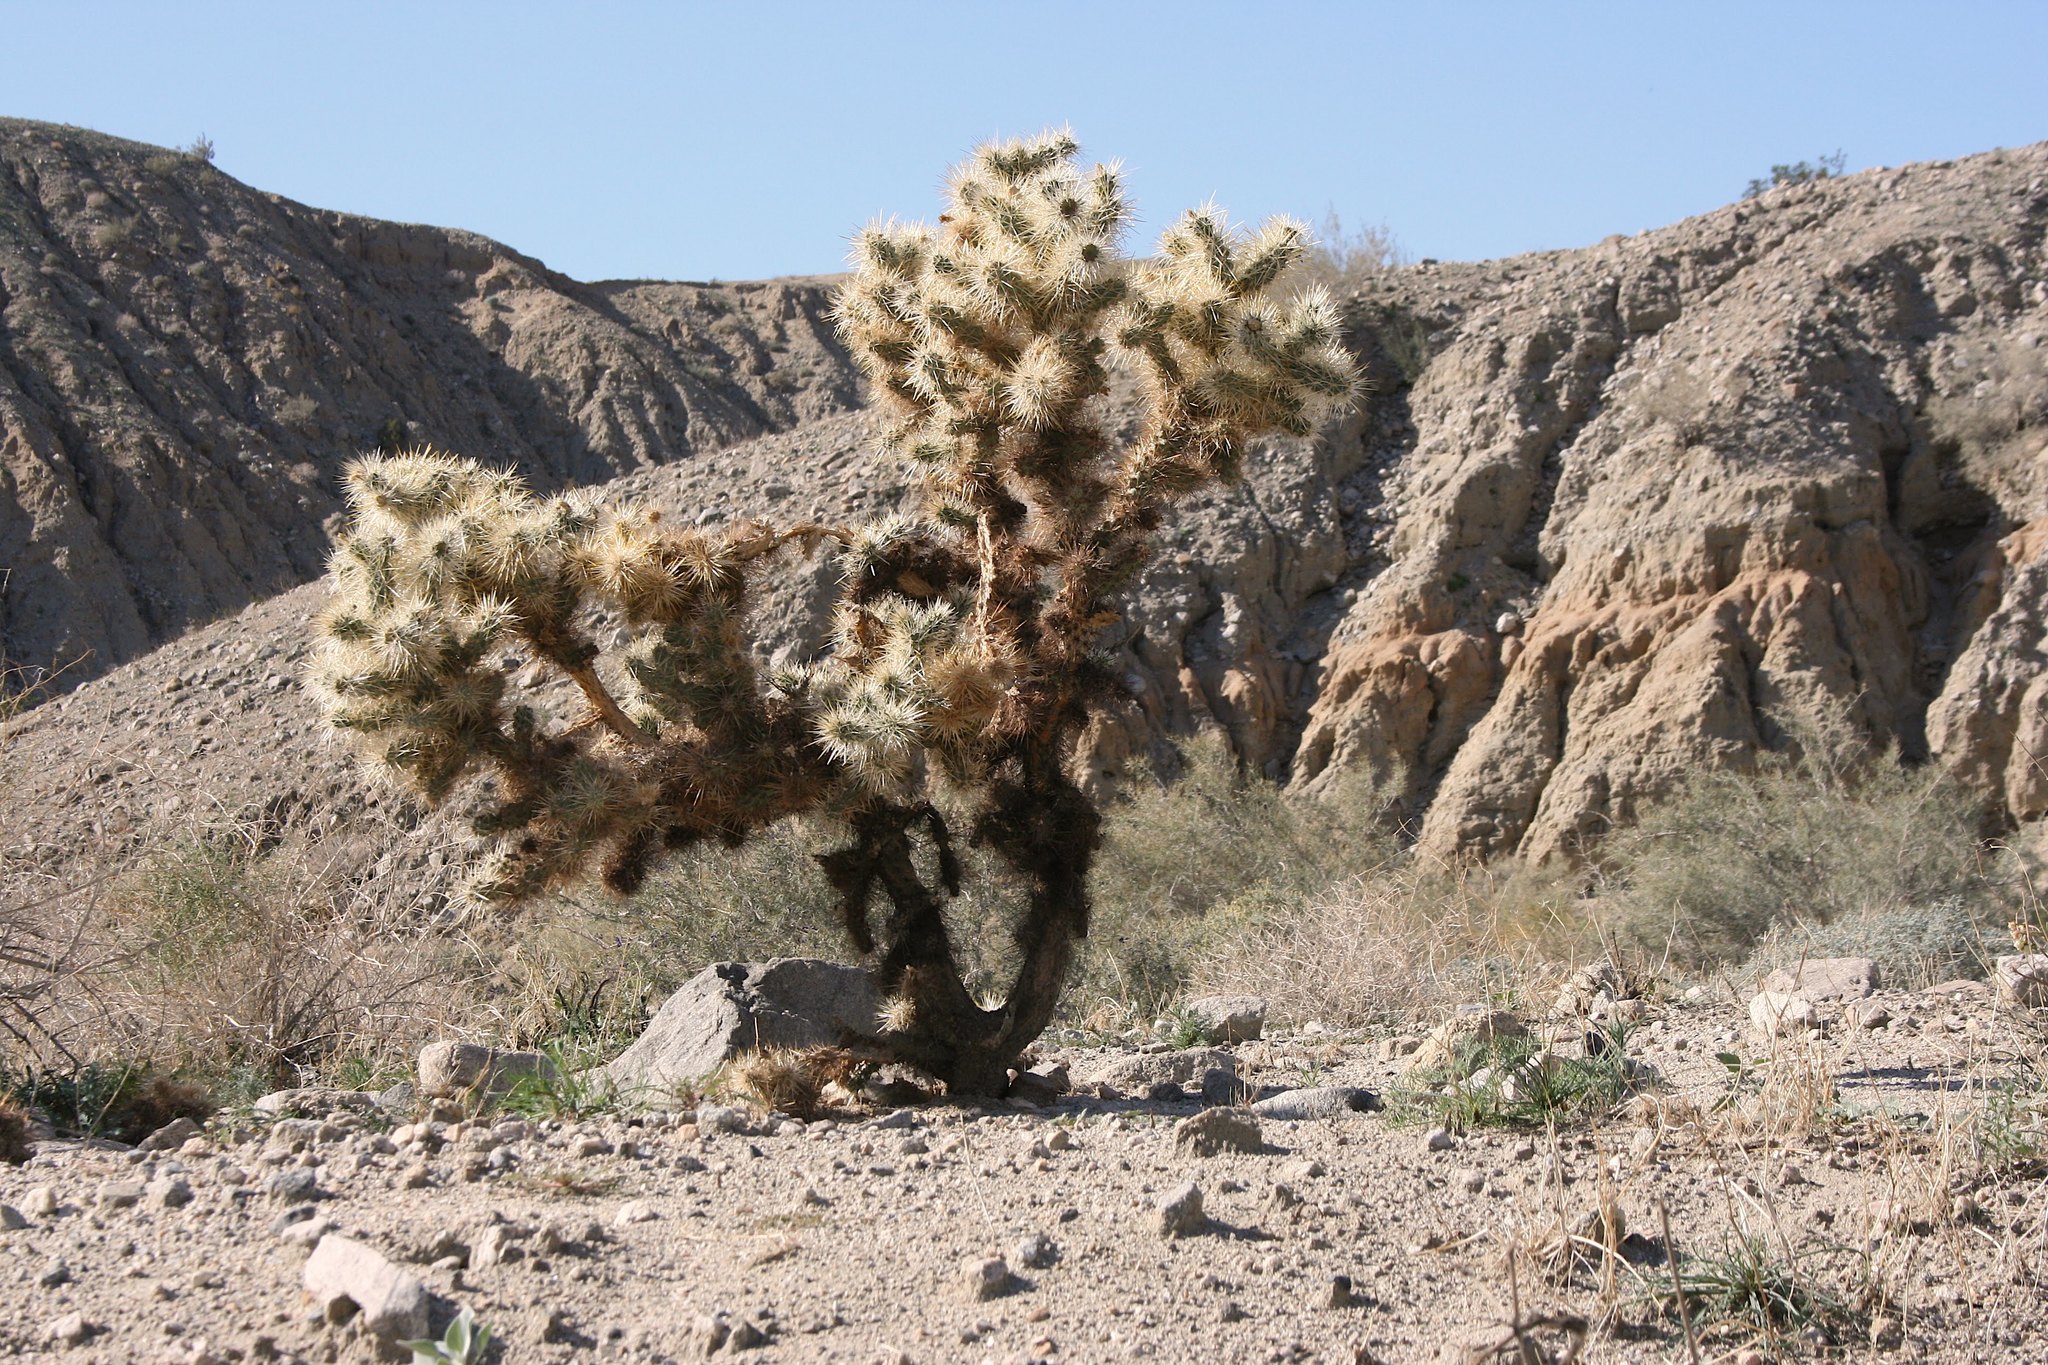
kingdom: Plantae
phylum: Tracheophyta
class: Magnoliopsida
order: Caryophyllales
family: Cactaceae
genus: Cylindropuntia
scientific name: Cylindropuntia echinocarpa
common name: Ground cholla
